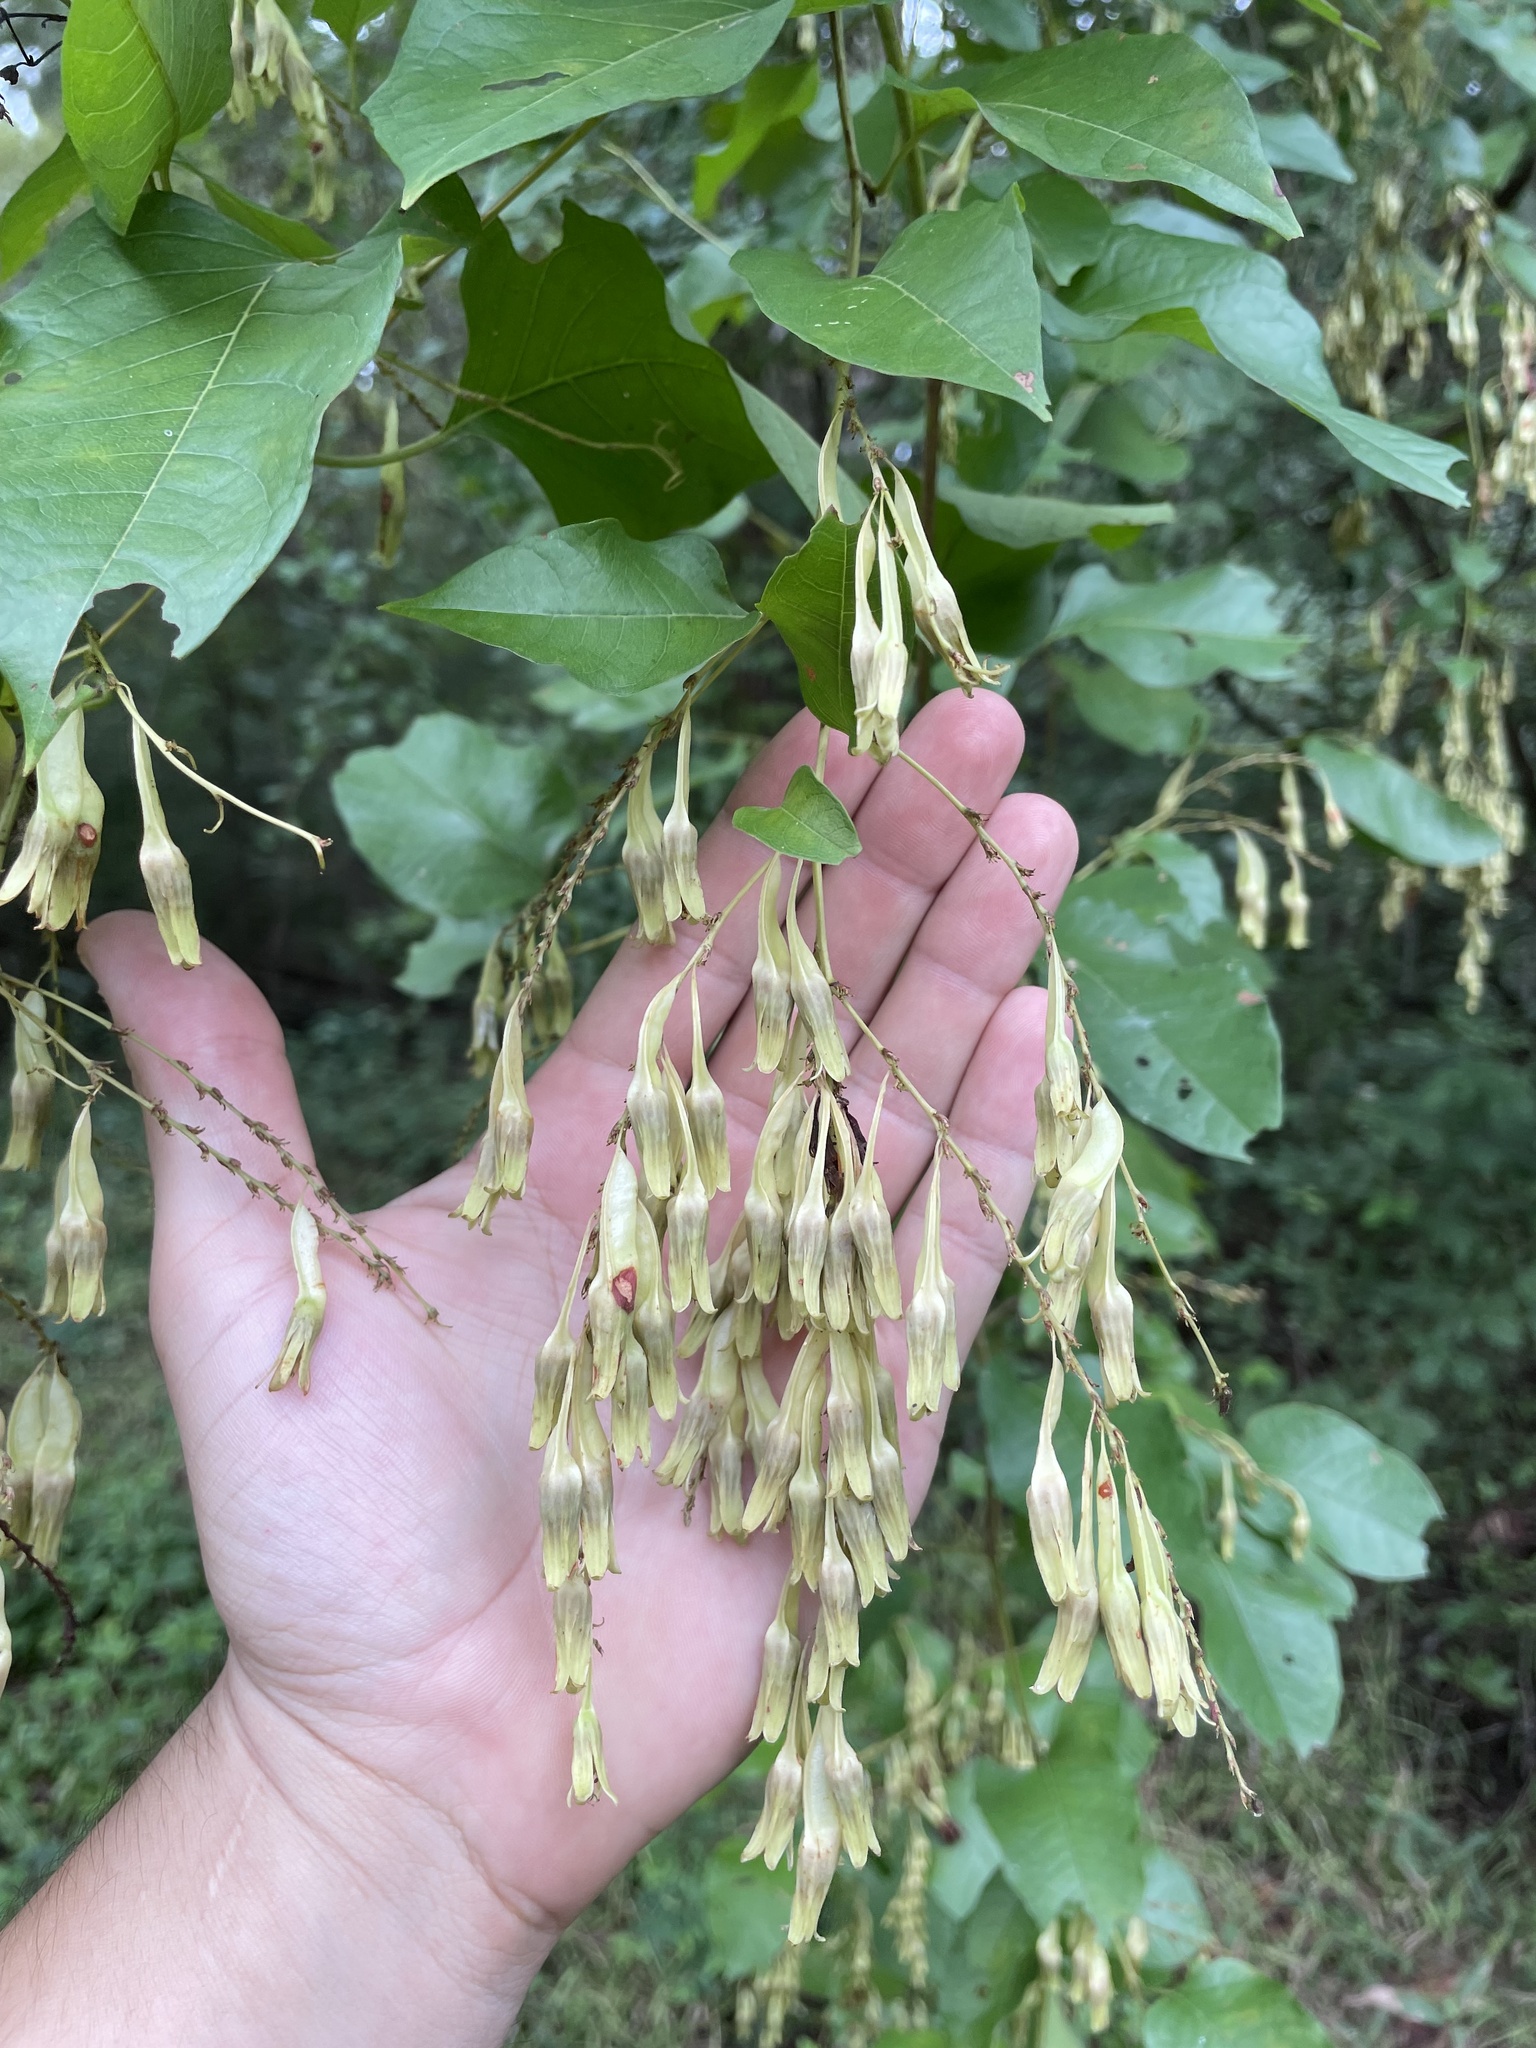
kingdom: Plantae
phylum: Tracheophyta
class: Magnoliopsida
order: Caryophyllales
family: Polygonaceae
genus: Brunnichia
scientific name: Brunnichia ovata
